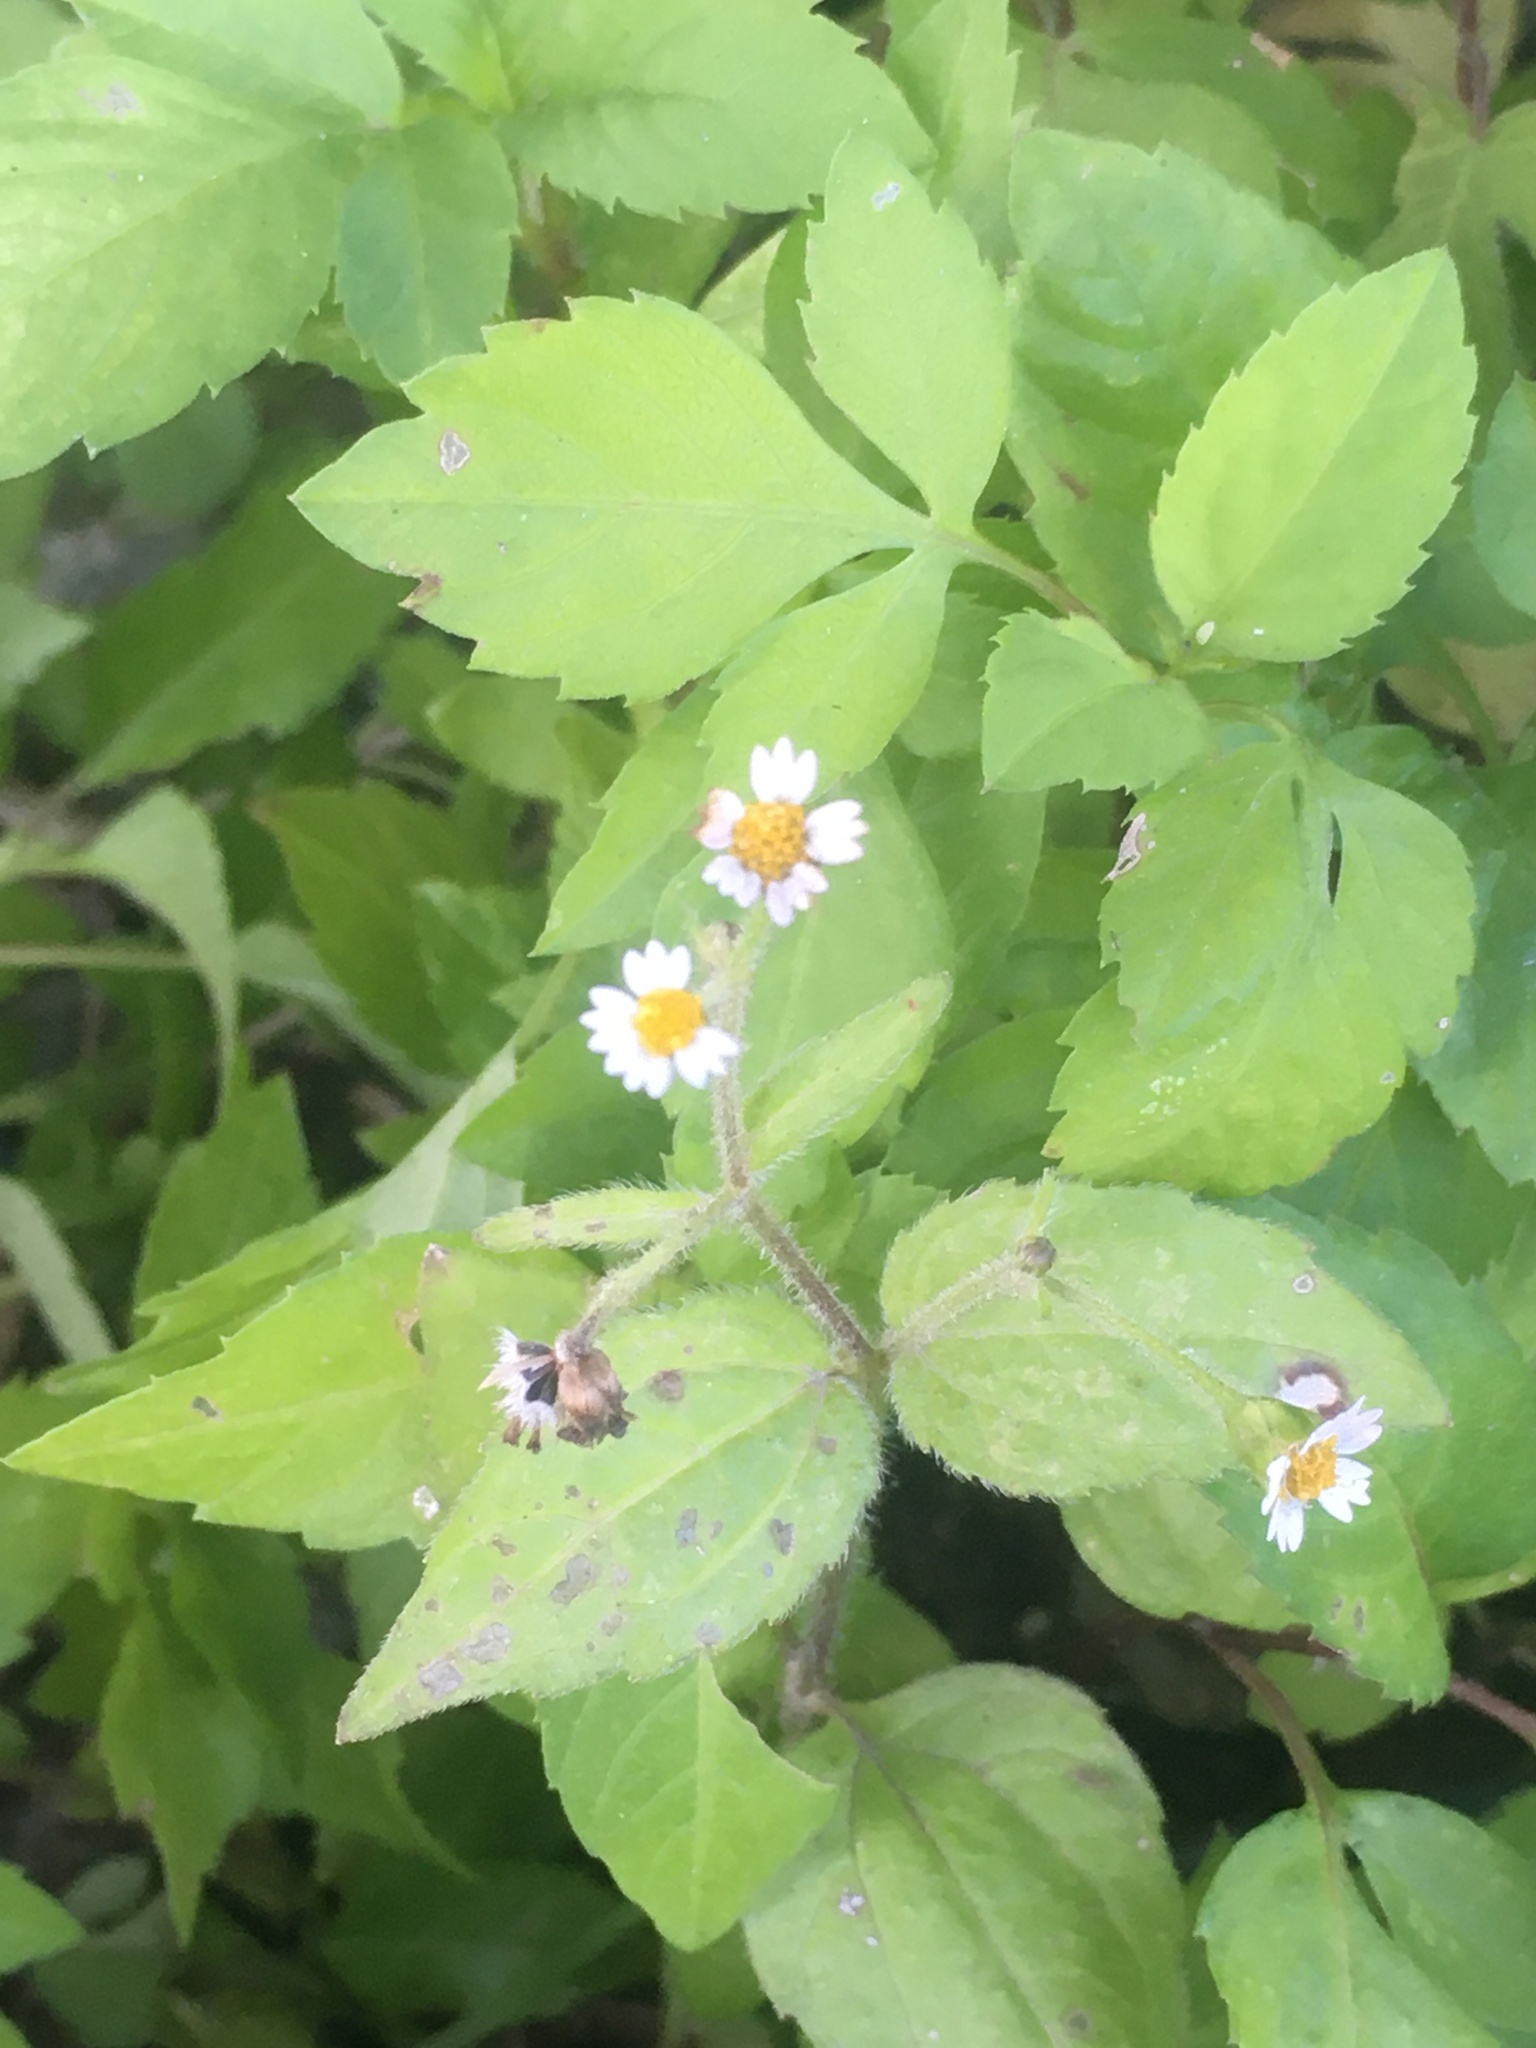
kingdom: Plantae
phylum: Tracheophyta
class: Magnoliopsida
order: Asterales
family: Asteraceae
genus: Galinsoga
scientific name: Galinsoga quadriradiata
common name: Shaggy soldier
